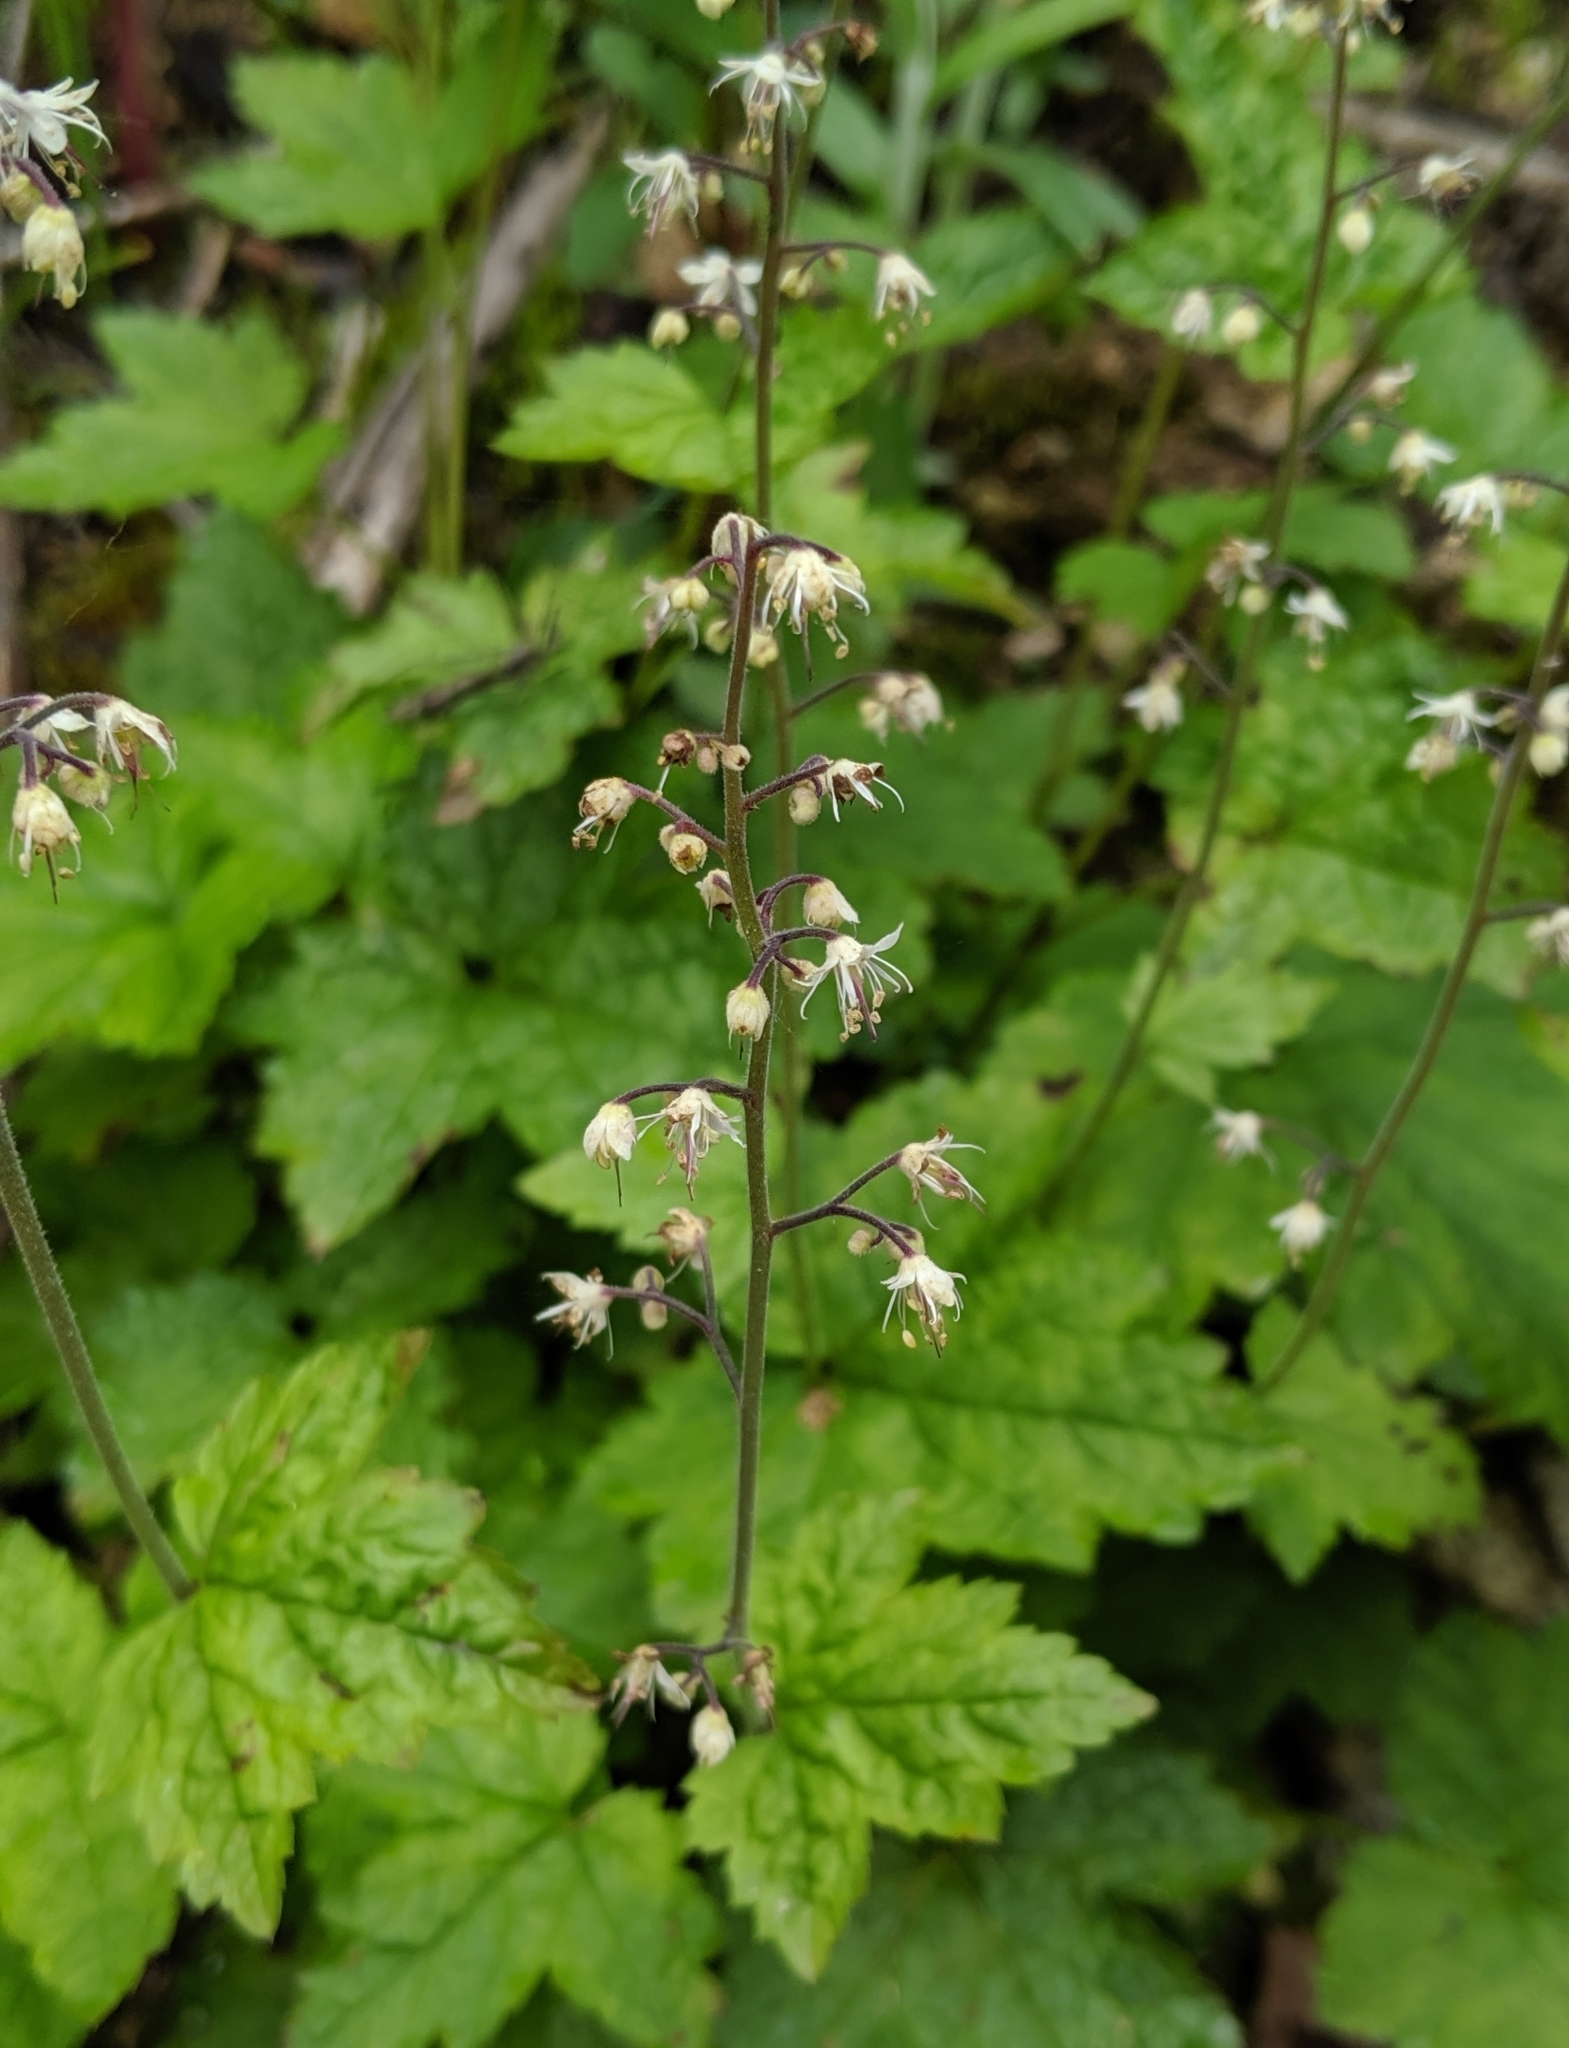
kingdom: Plantae
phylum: Tracheophyta
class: Magnoliopsida
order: Saxifragales
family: Saxifragaceae
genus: Tiarella
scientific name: Tiarella trifoliata
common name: Sugar-scoop
